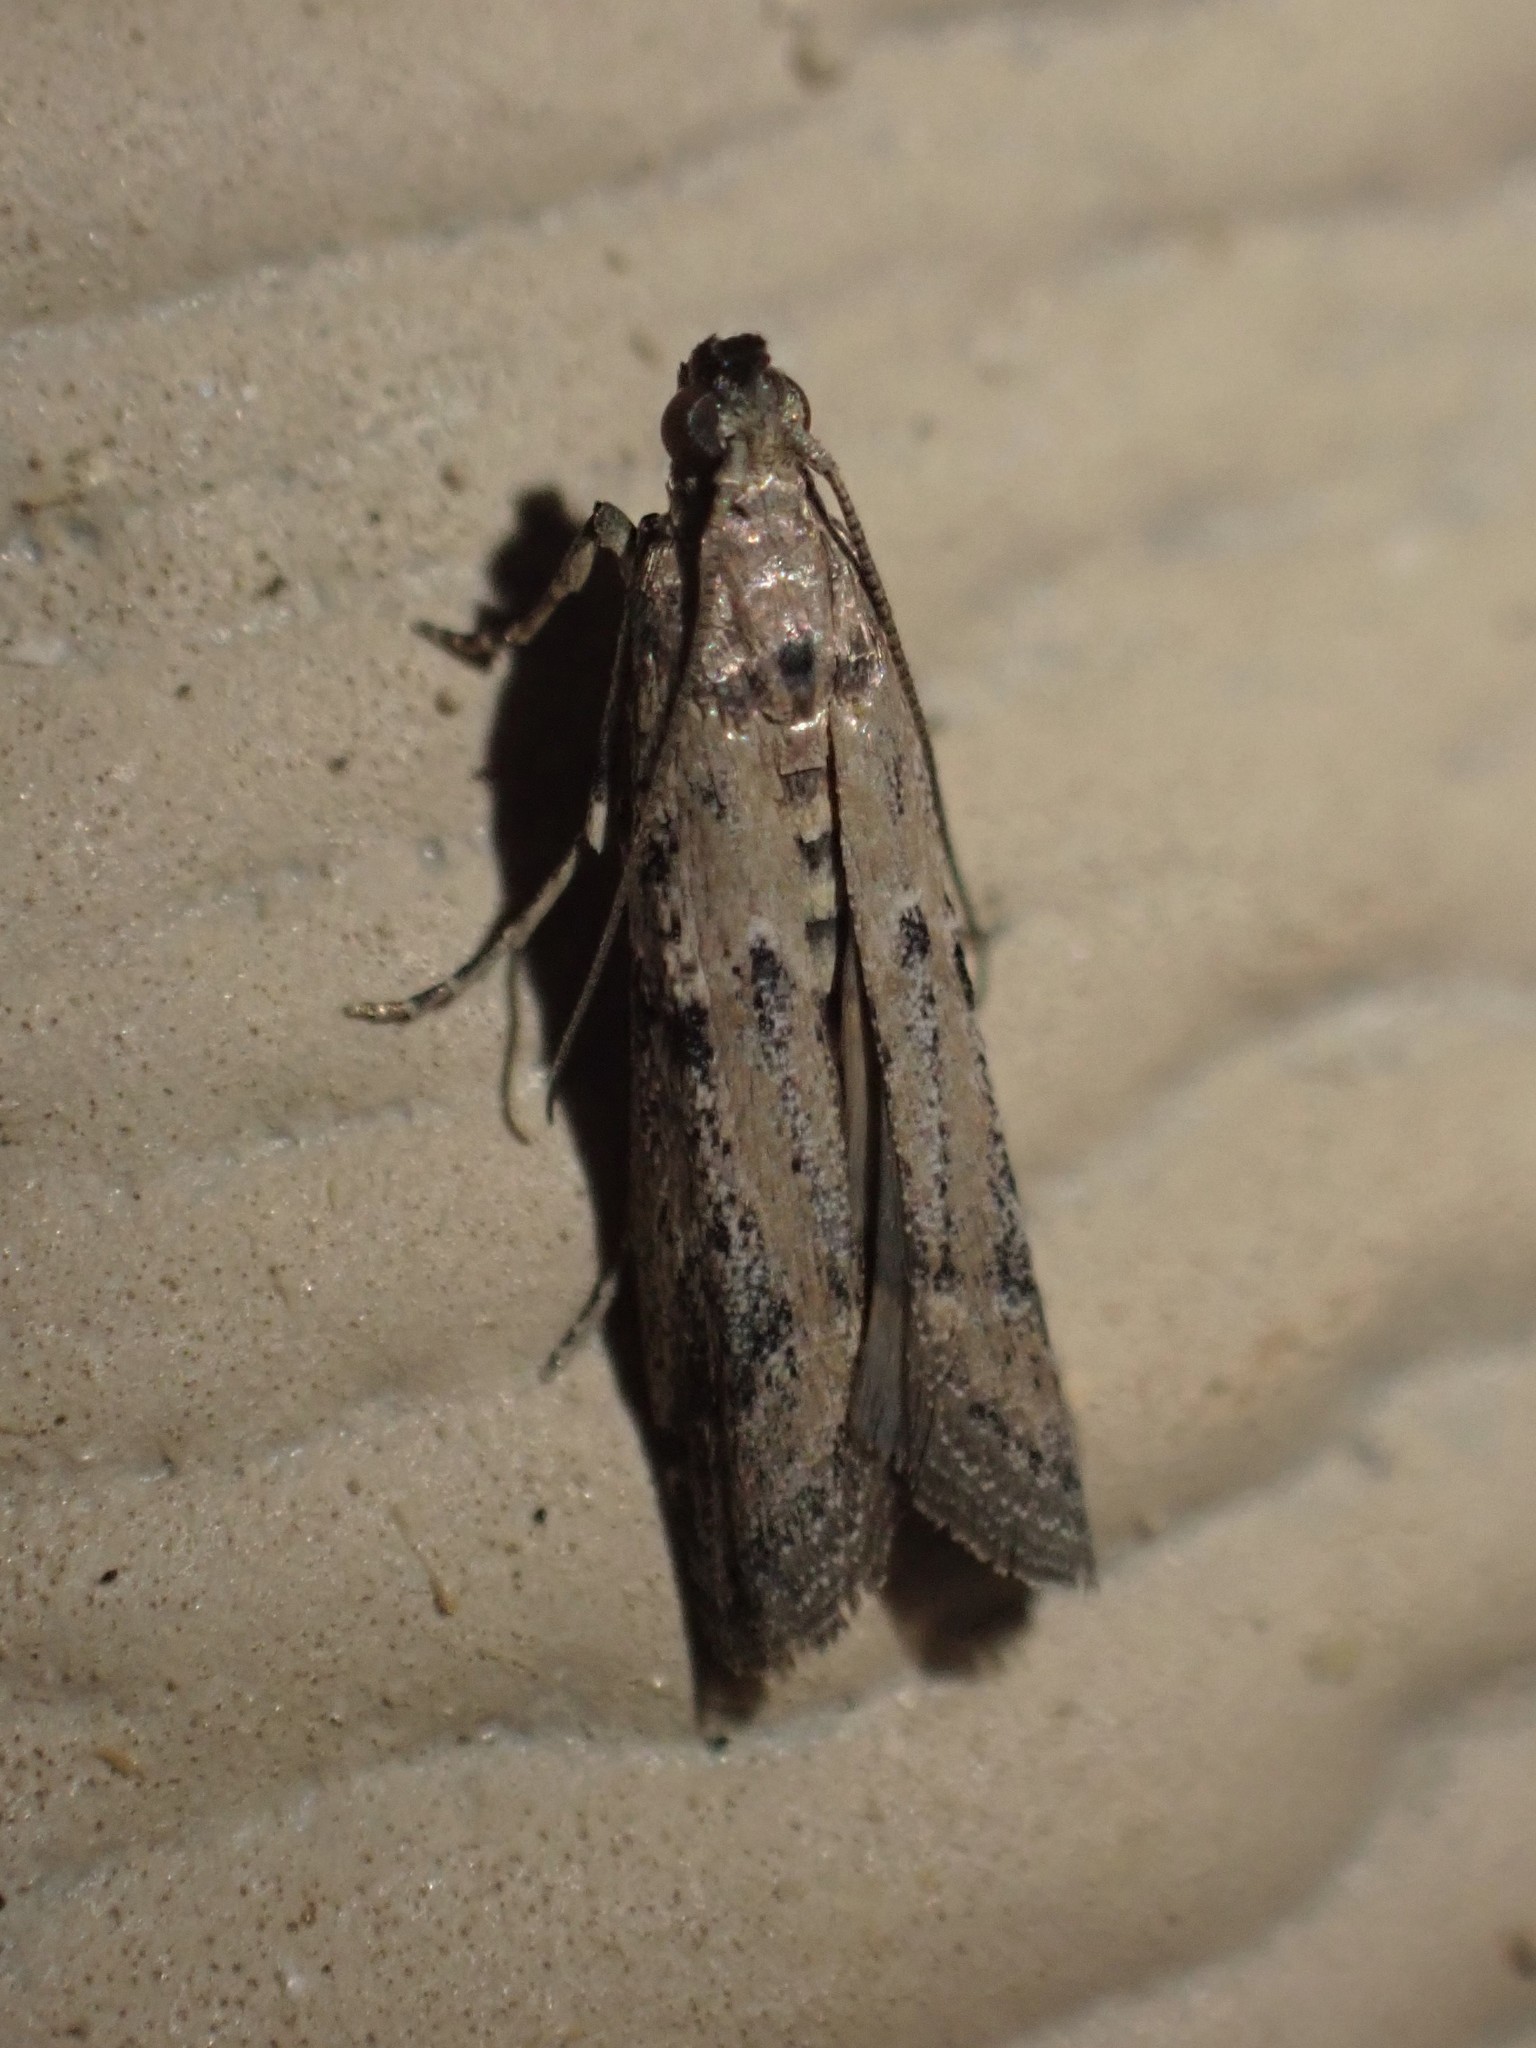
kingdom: Animalia
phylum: Arthropoda
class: Insecta
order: Lepidoptera
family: Pyralidae
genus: Ephestiodes
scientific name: Ephestiodes gilvescentella
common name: Moth
